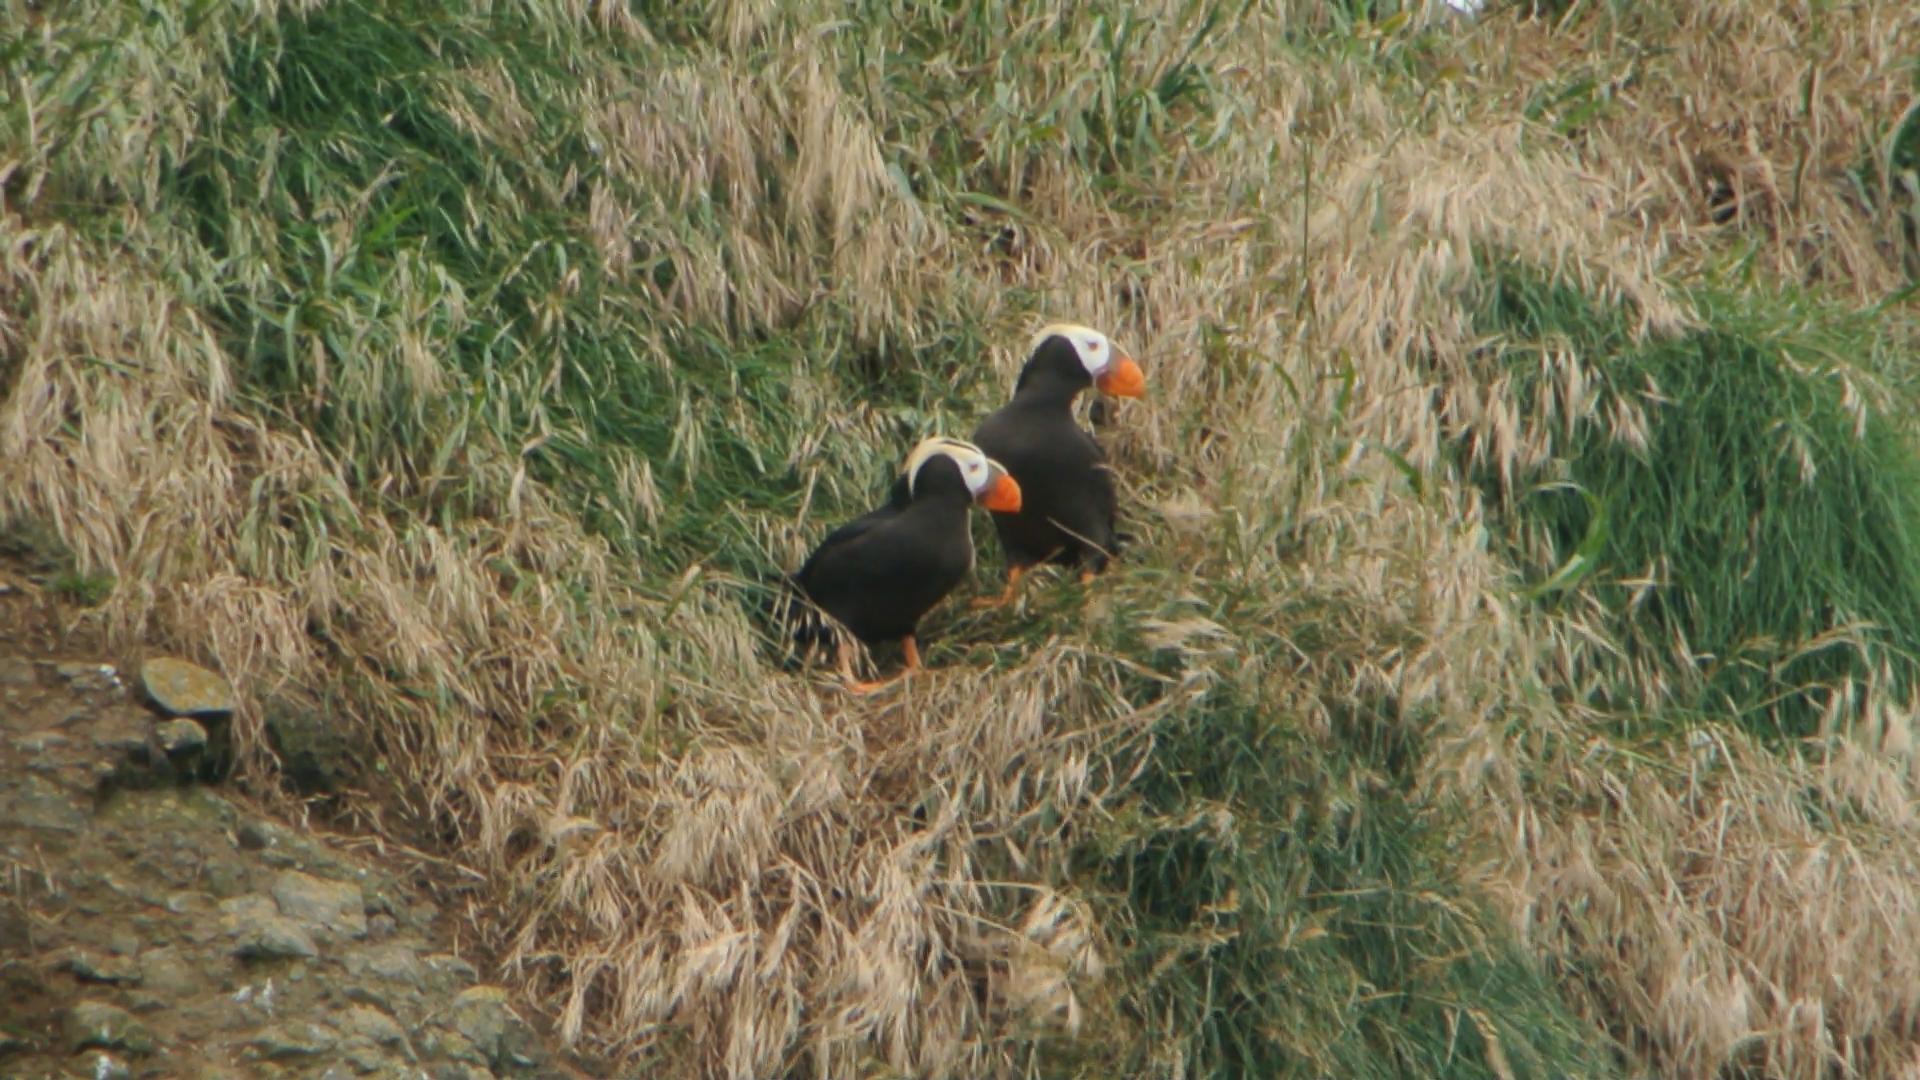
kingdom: Animalia
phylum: Chordata
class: Aves
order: Charadriiformes
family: Alcidae
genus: Fratercula
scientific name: Fratercula cirrhata
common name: Tufted puffin
